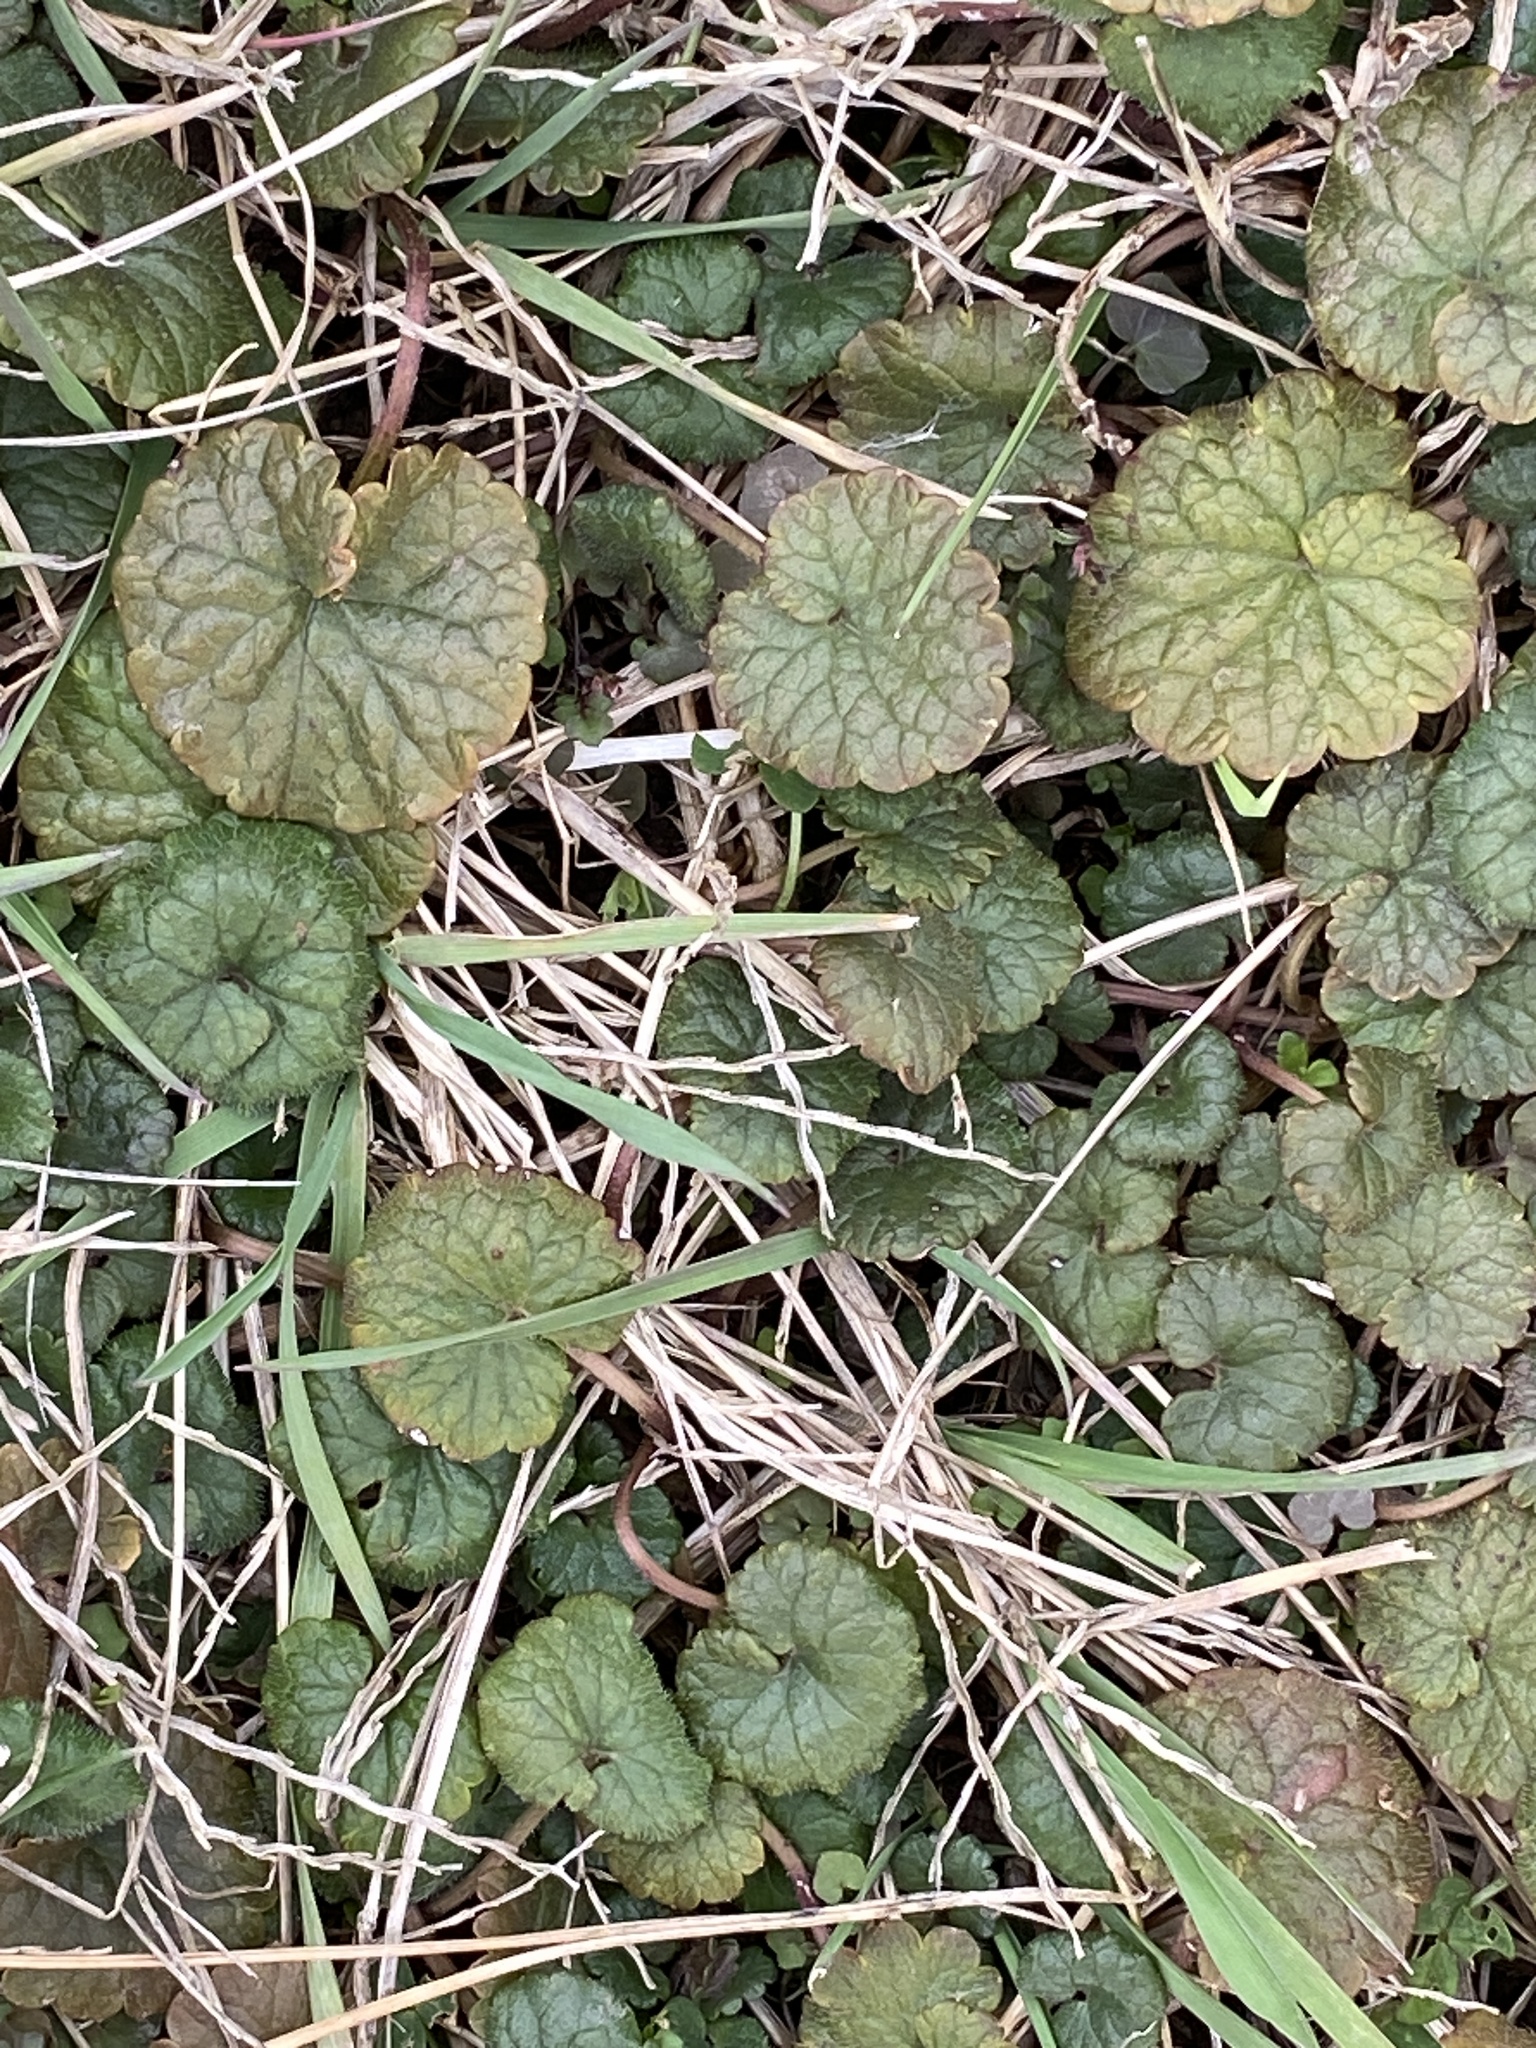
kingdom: Plantae
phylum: Tracheophyta
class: Magnoliopsida
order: Lamiales
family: Lamiaceae
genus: Glechoma
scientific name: Glechoma hederacea
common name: Ground ivy
